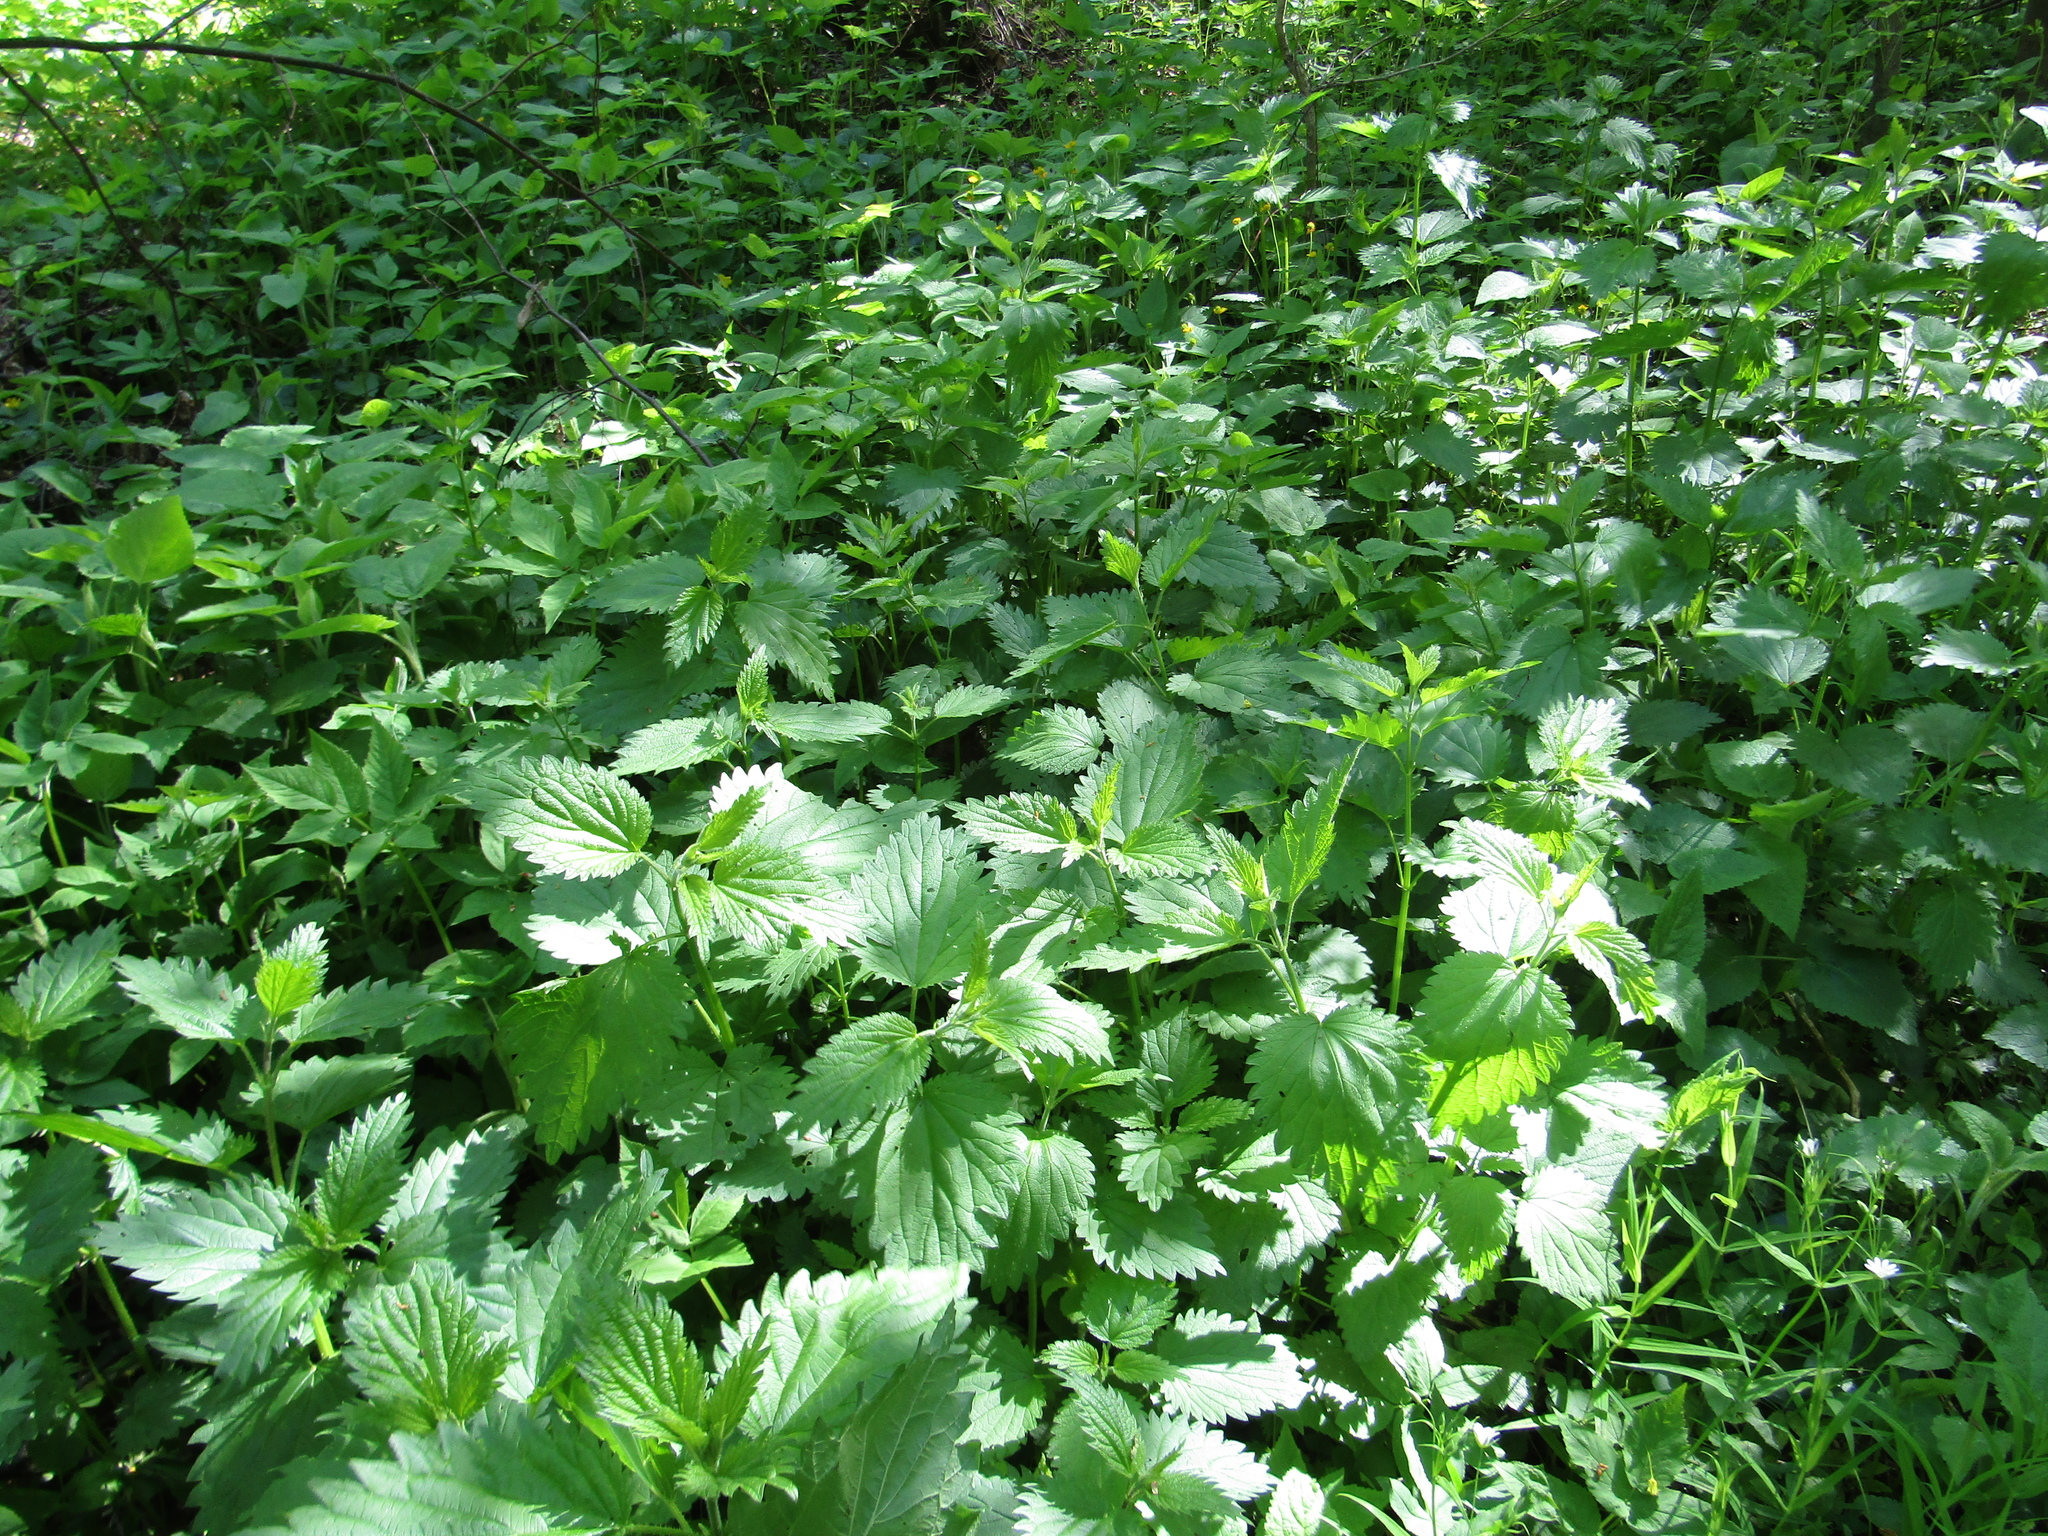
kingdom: Plantae
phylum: Tracheophyta
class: Magnoliopsida
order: Rosales
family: Urticaceae
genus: Urtica
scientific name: Urtica dioica
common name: Common nettle
